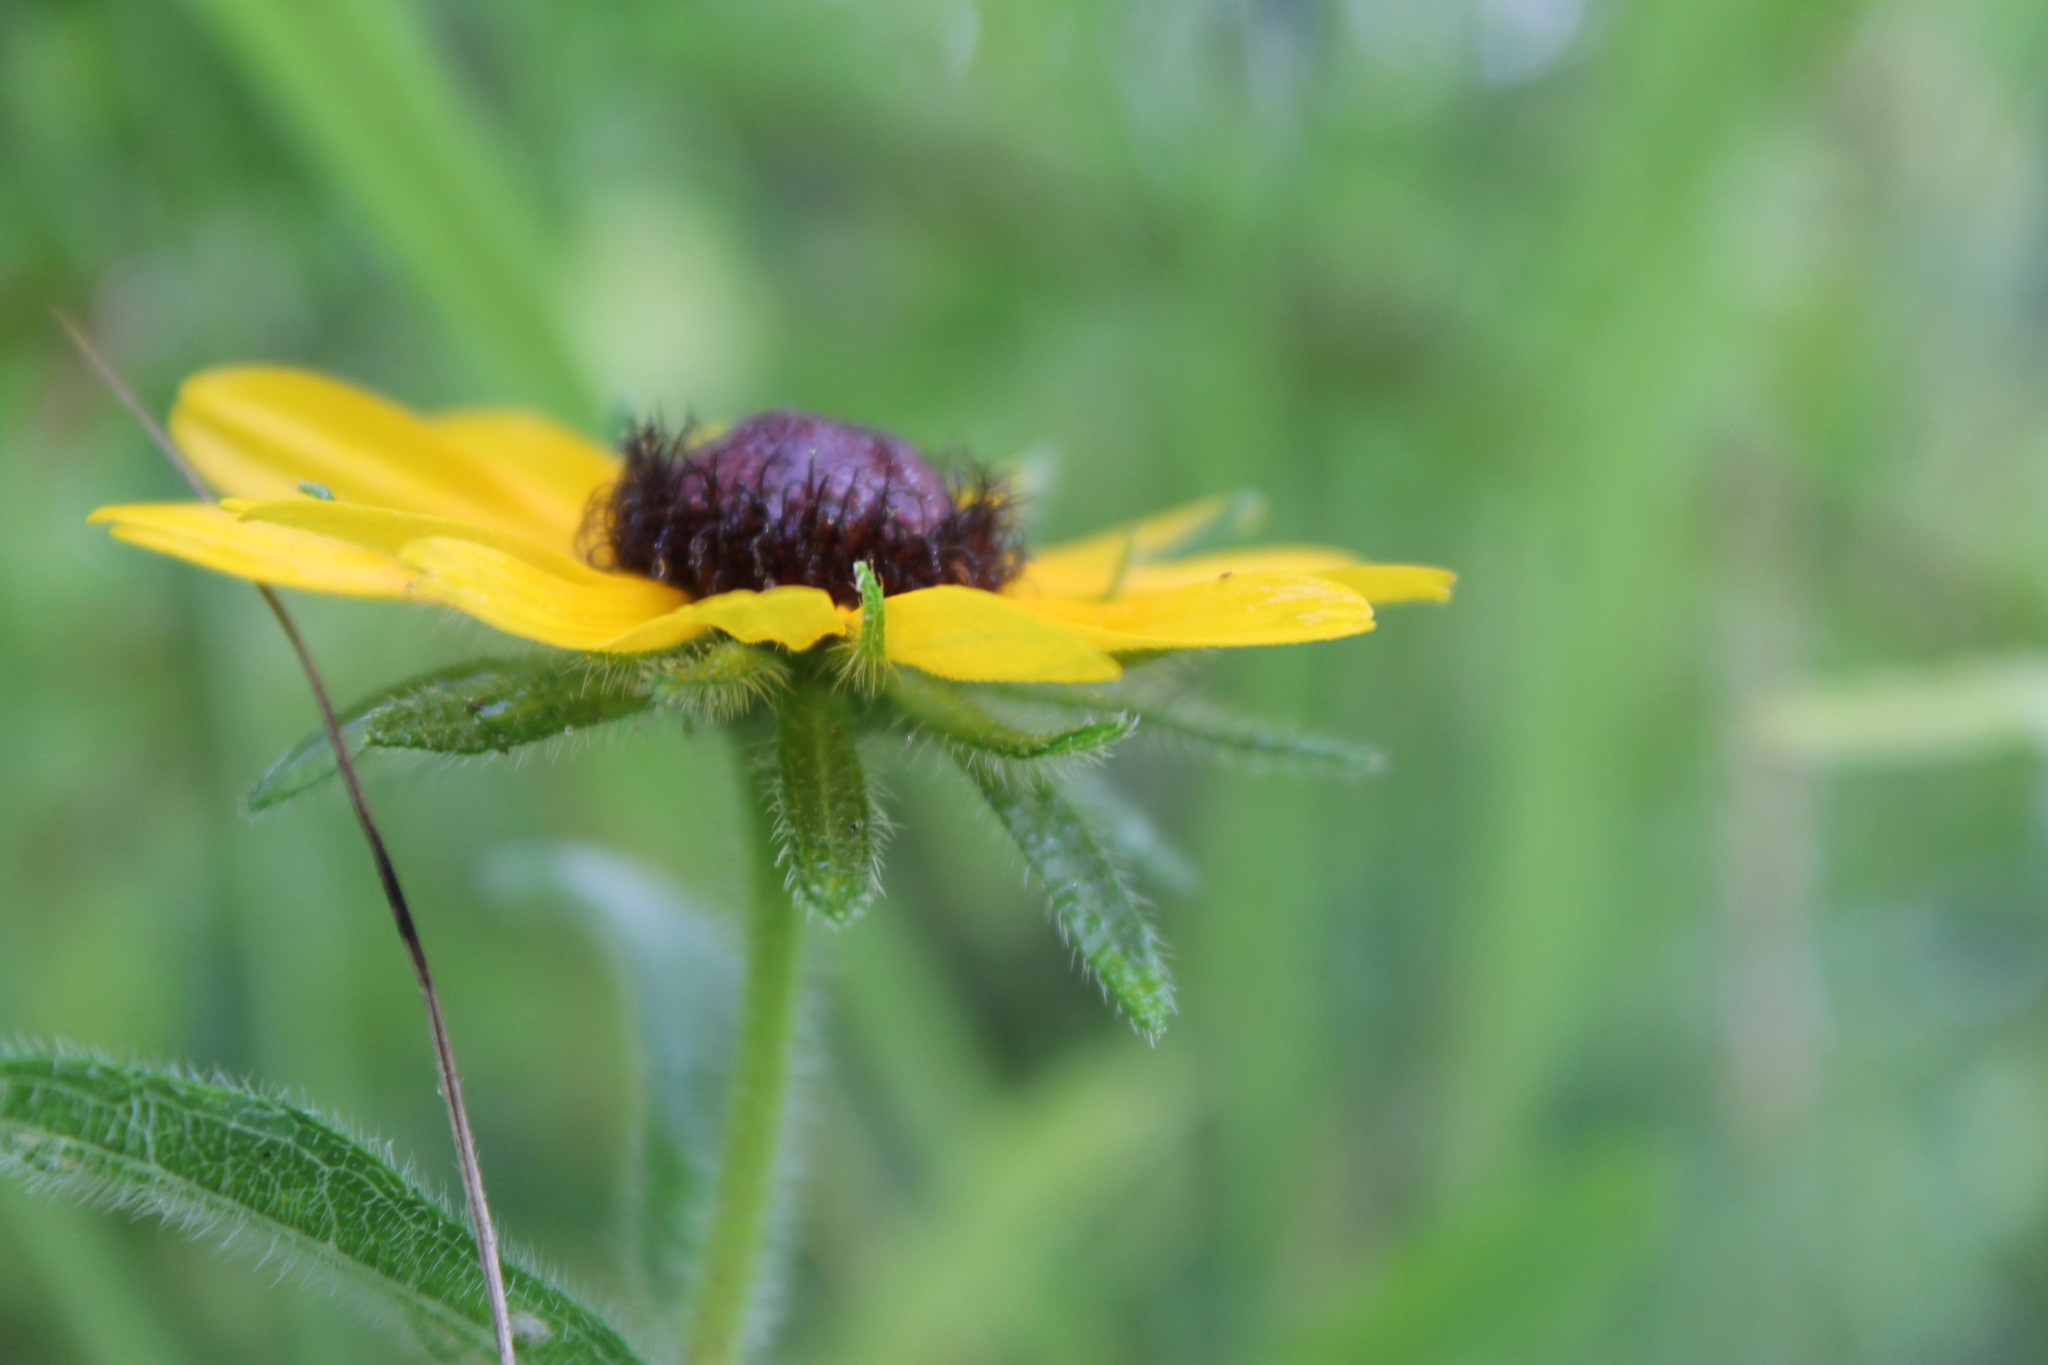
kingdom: Plantae
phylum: Tracheophyta
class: Magnoliopsida
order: Asterales
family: Asteraceae
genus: Rudbeckia
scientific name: Rudbeckia hirta
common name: Black-eyed-susan
